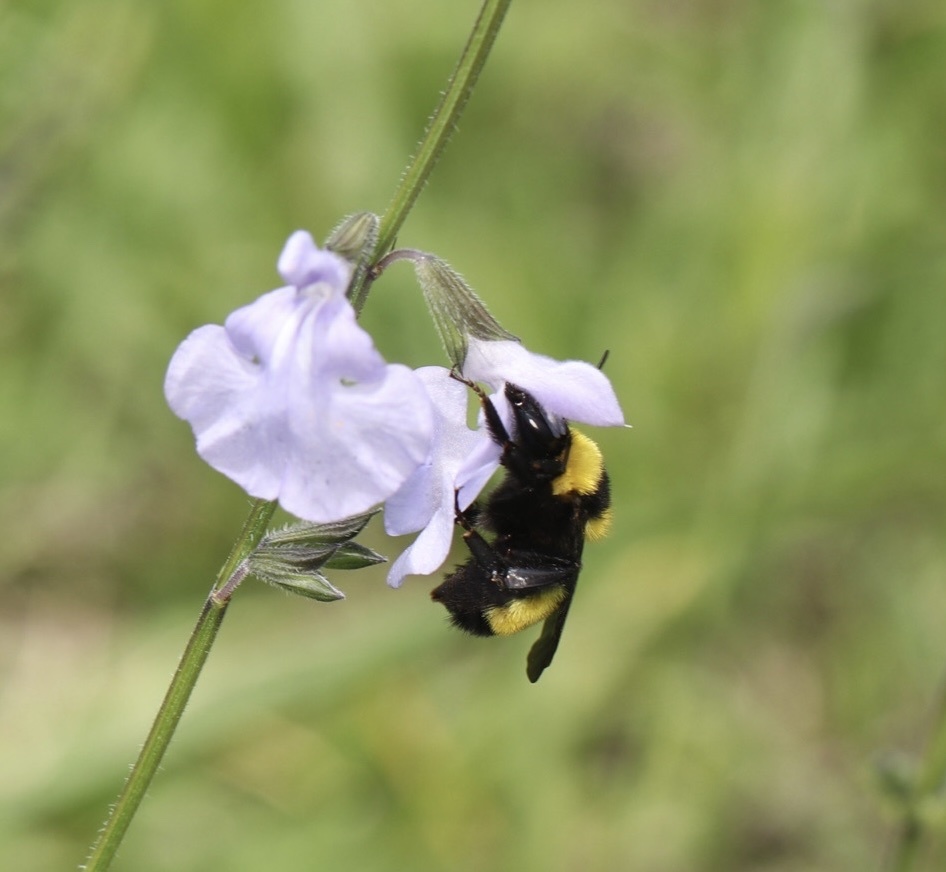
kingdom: Animalia
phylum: Arthropoda
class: Insecta
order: Hymenoptera
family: Apidae
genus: Bombus
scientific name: Bombus sonorus
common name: Sonoran bumble bee
